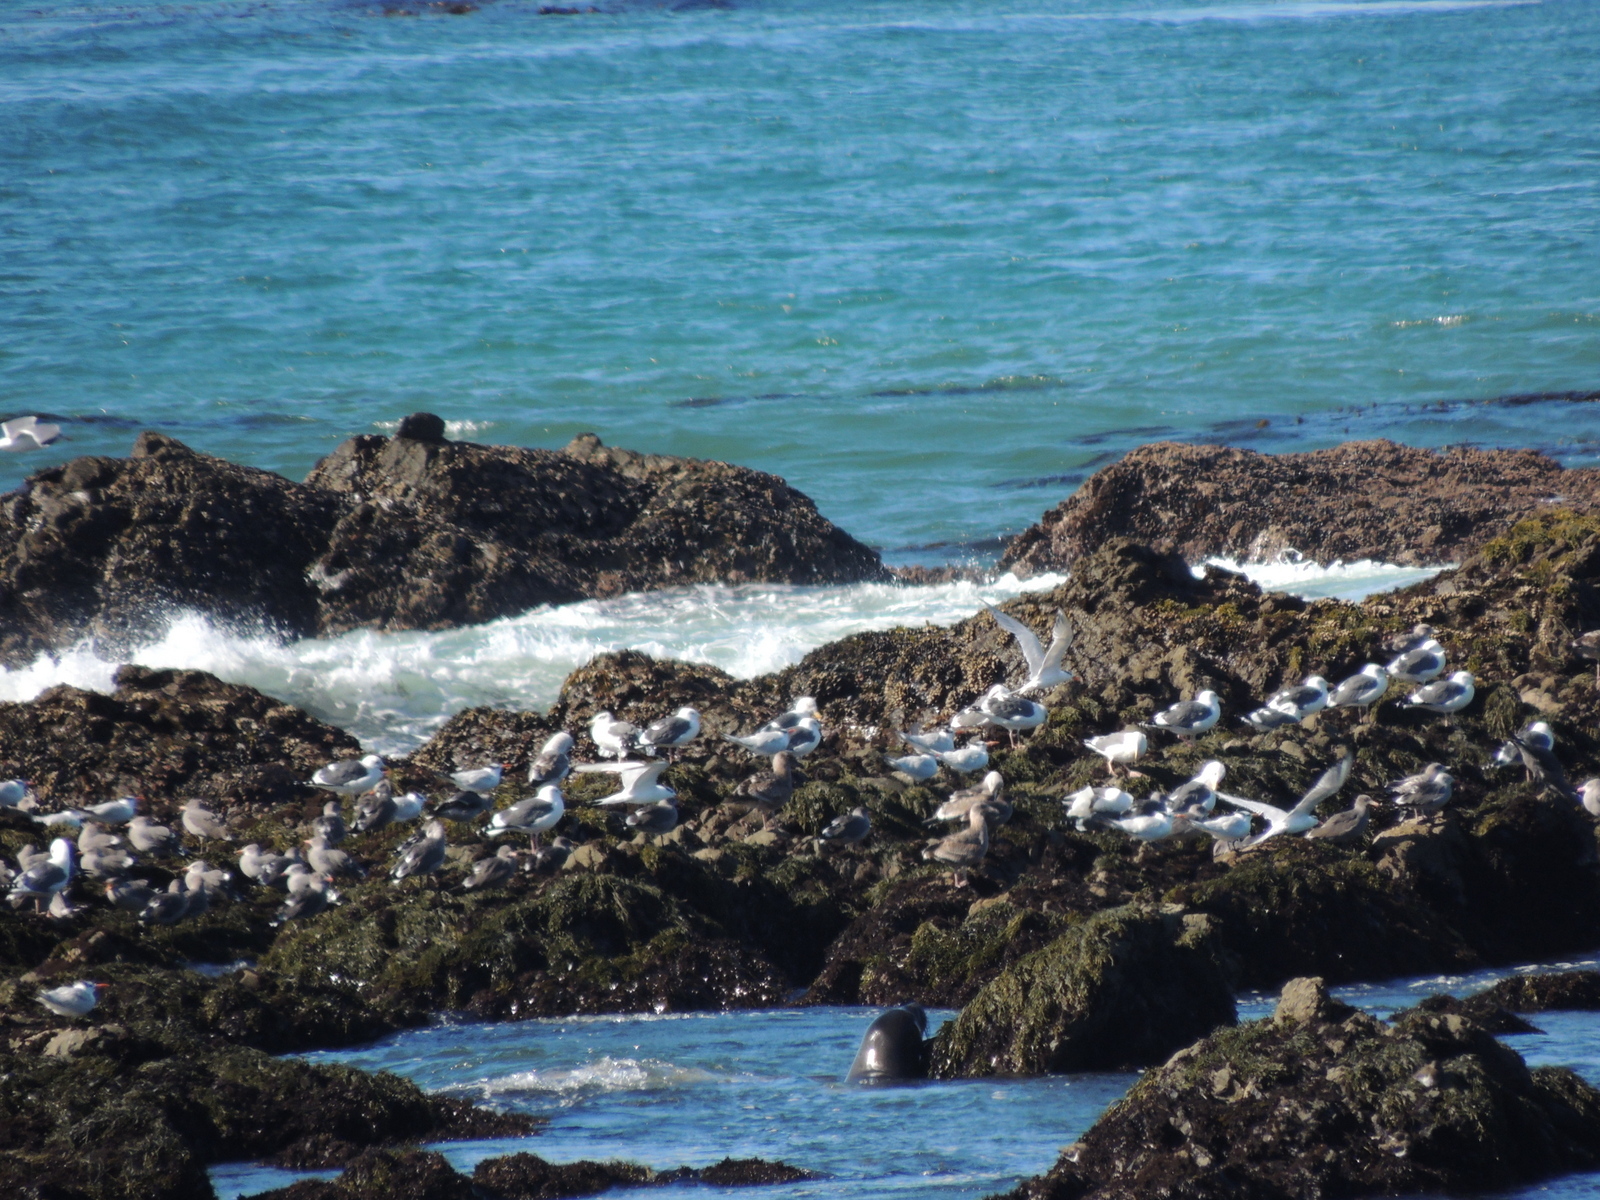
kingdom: Animalia
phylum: Chordata
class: Aves
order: Charadriiformes
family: Laridae
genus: Larus
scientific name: Larus occidentalis
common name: Western gull
